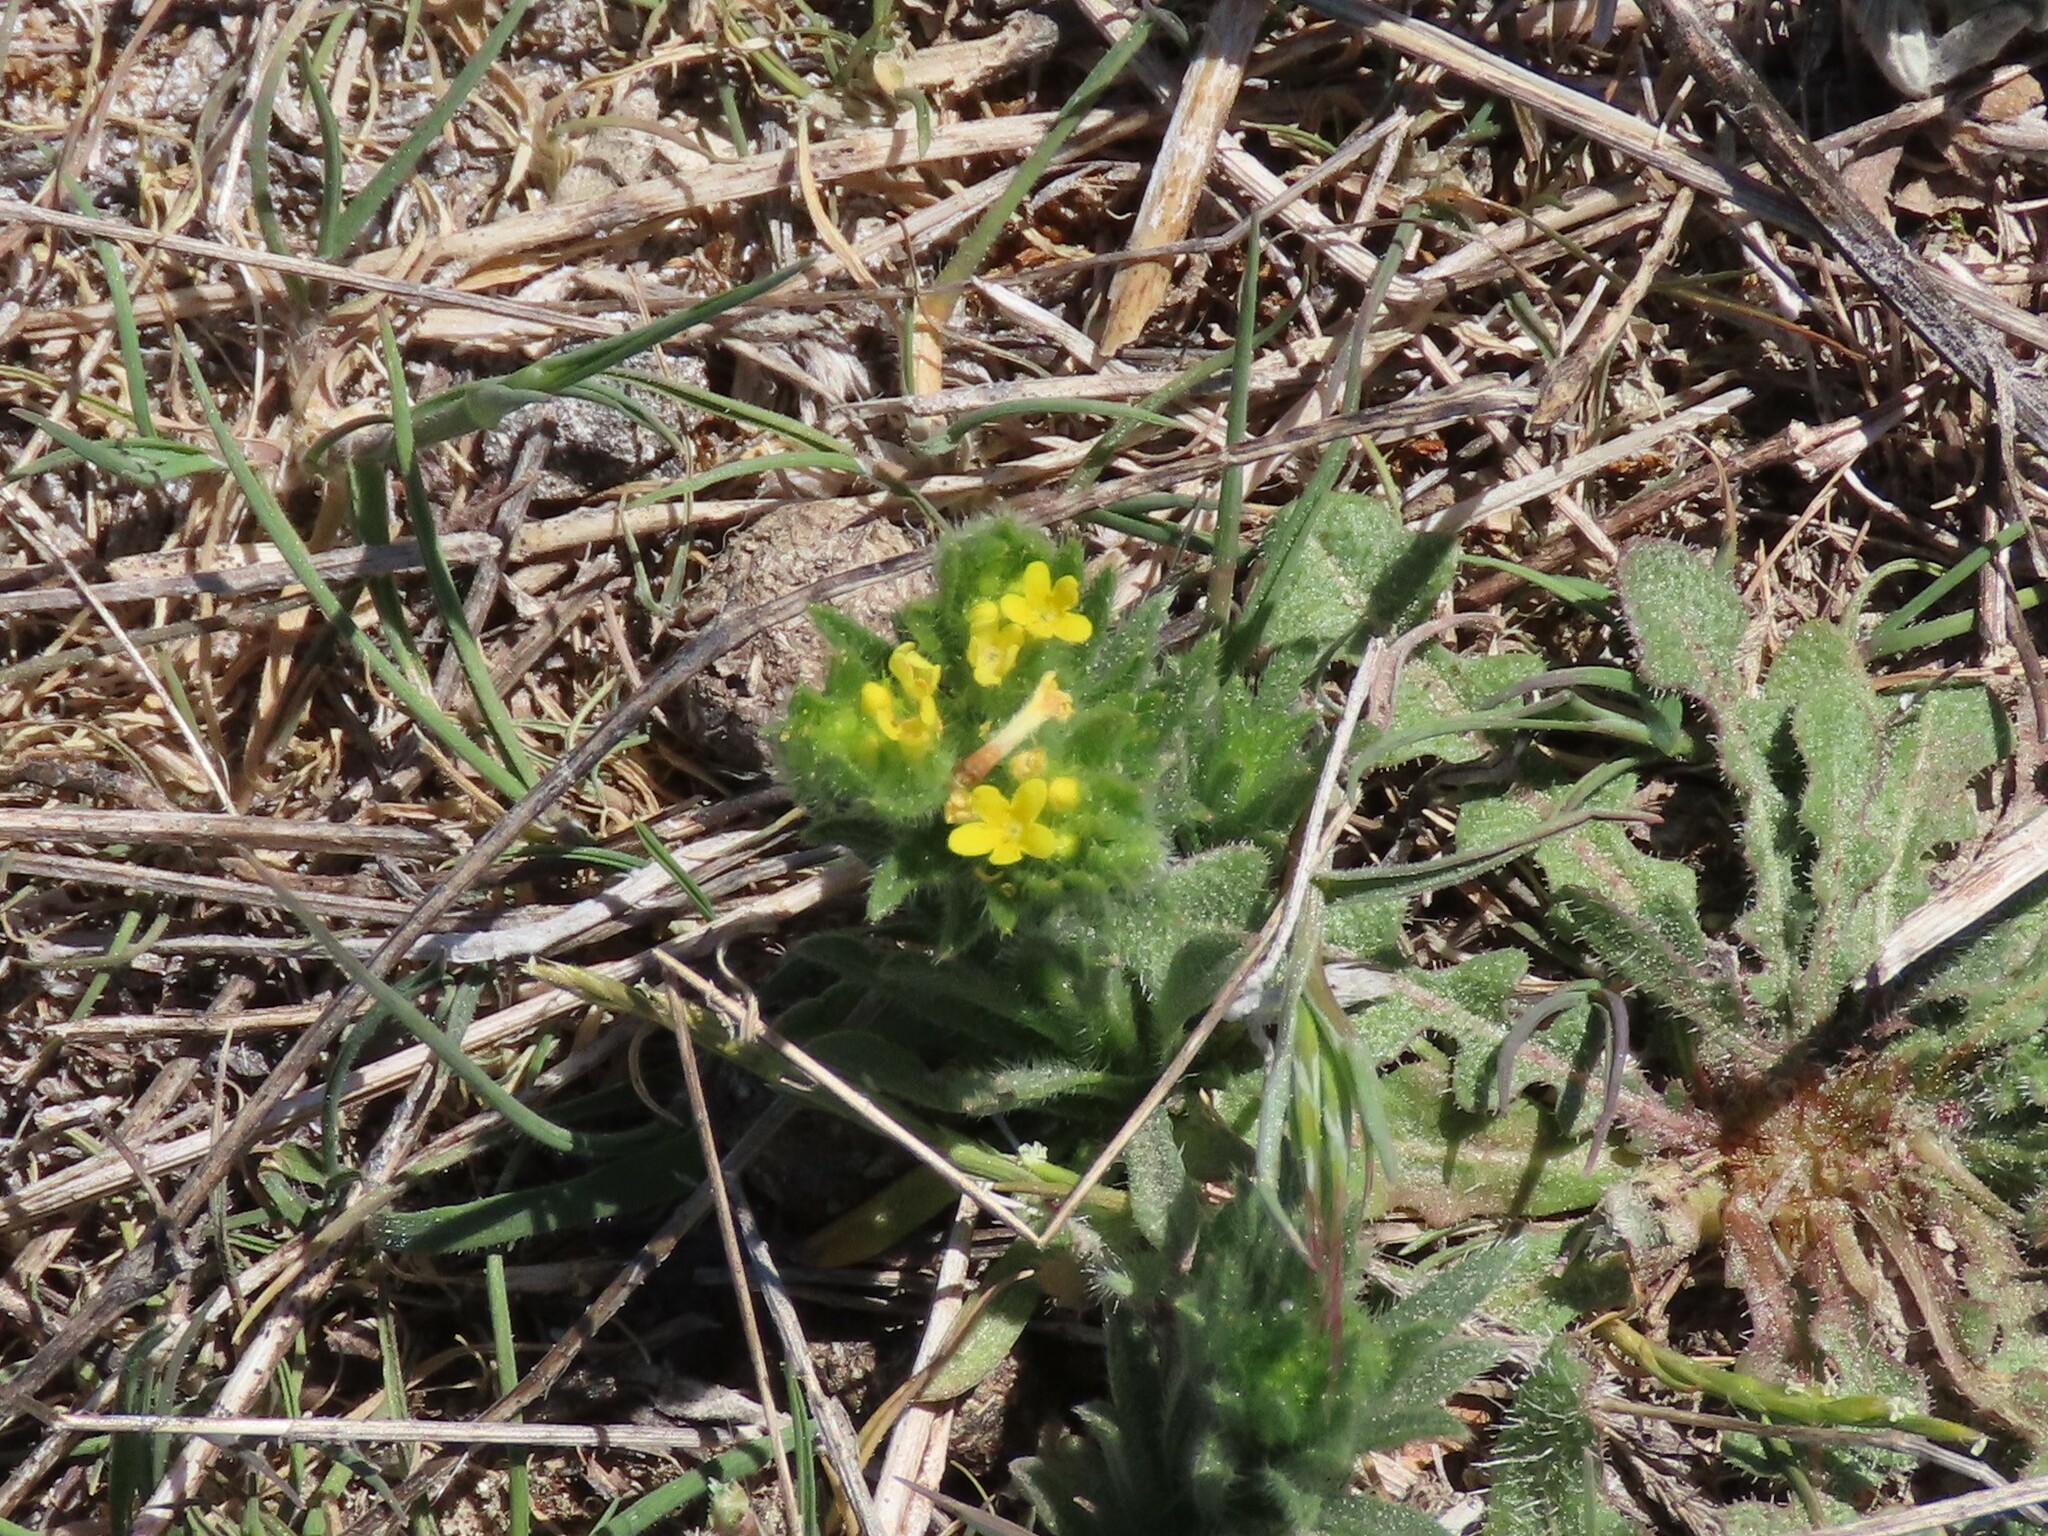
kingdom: Plantae
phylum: Tracheophyta
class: Magnoliopsida
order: Boraginales
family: Boraginaceae
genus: Neatostema
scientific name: Neatostema apulum
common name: Hairy sheepweed
